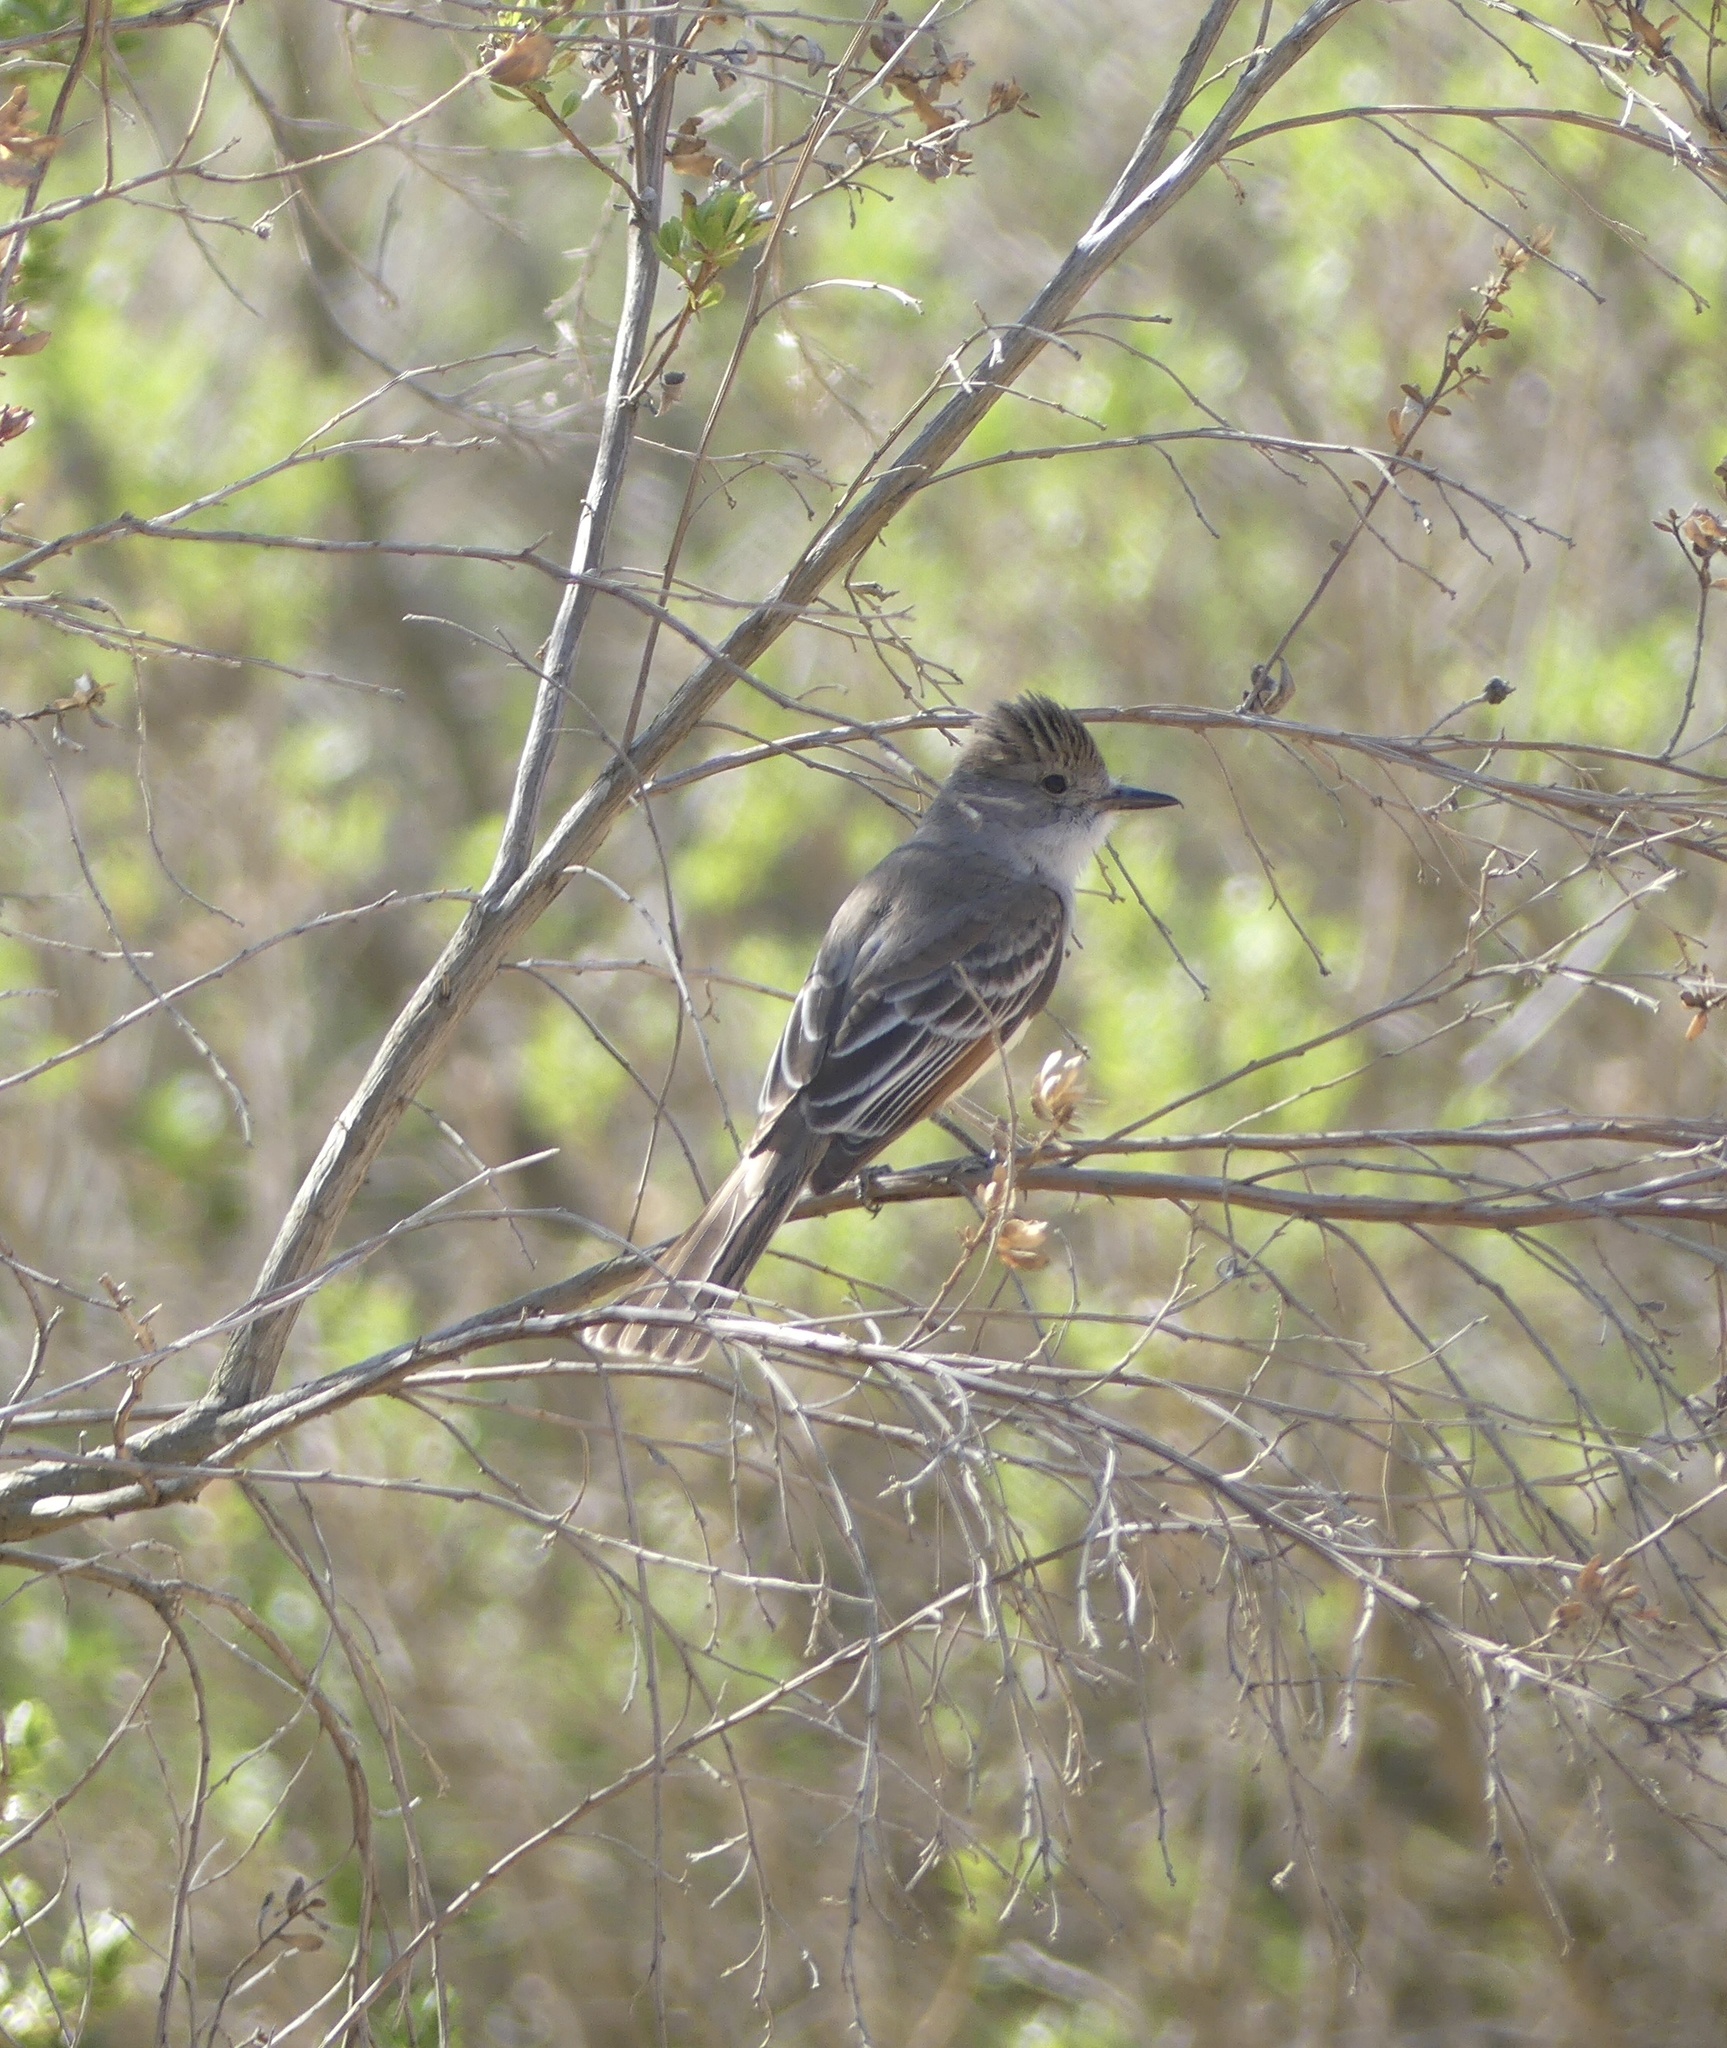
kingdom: Animalia
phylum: Chordata
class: Aves
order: Passeriformes
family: Tyrannidae
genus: Myiarchus
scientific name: Myiarchus cinerascens
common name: Ash-throated flycatcher
